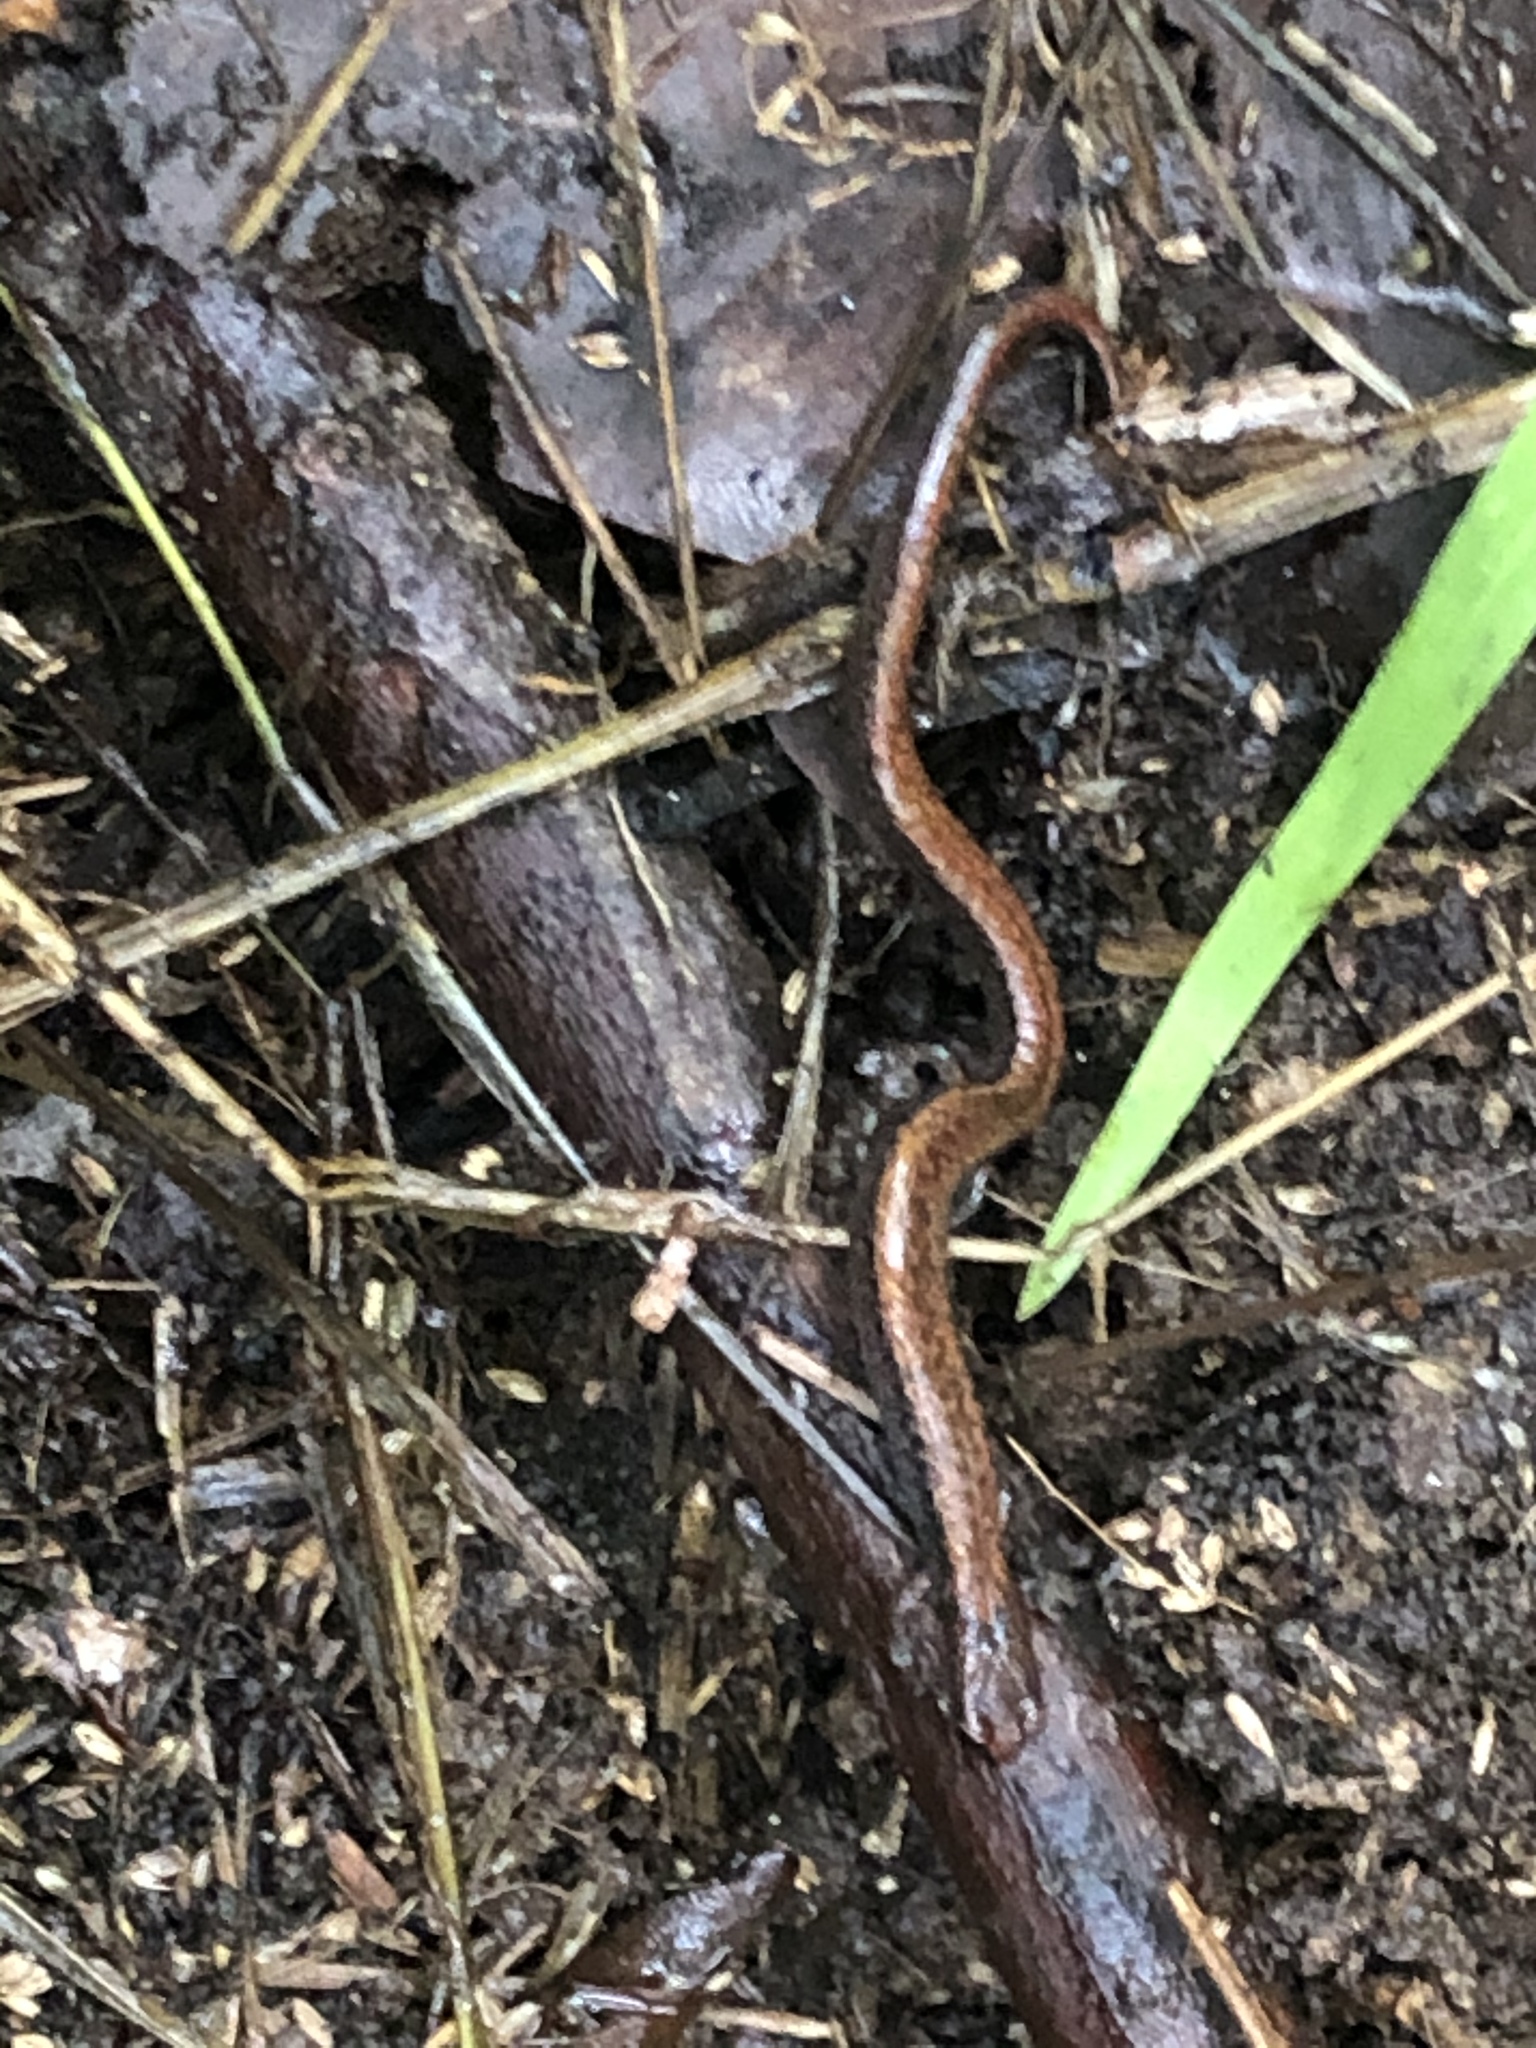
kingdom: Animalia
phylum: Chordata
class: Amphibia
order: Caudata
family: Plethodontidae
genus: Batrachoseps
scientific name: Batrachoseps attenuatus
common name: California slender salamander
